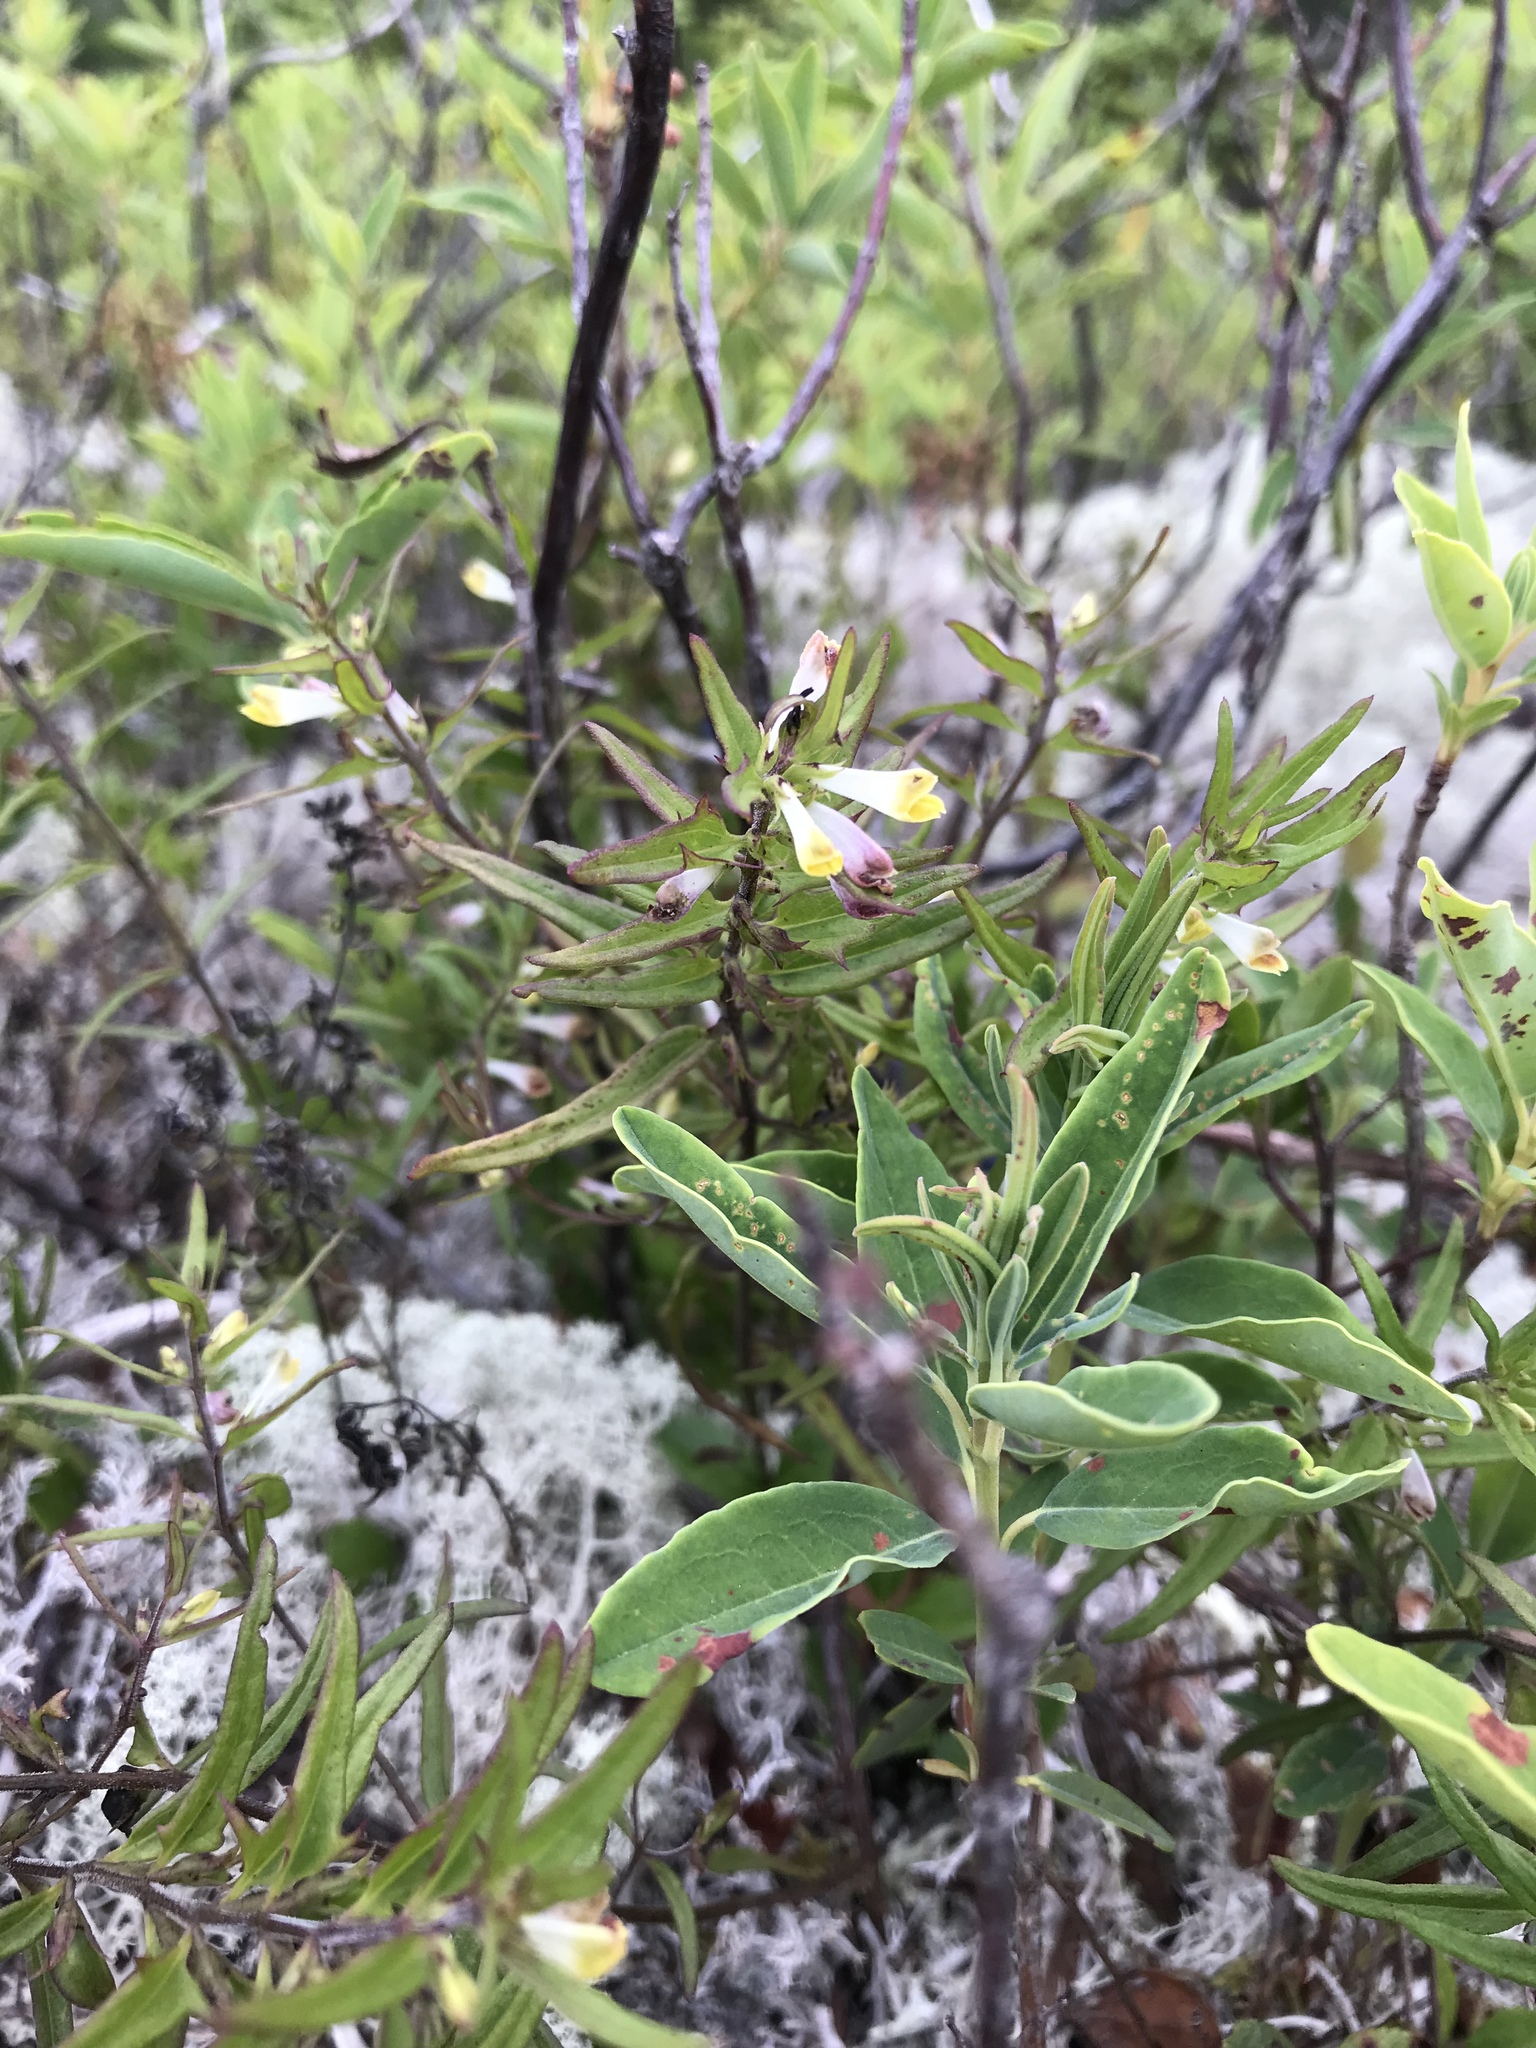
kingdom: Plantae
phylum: Tracheophyta
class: Magnoliopsida
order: Lamiales
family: Orobanchaceae
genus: Melampyrum
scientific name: Melampyrum lineare
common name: American cow-wheat
